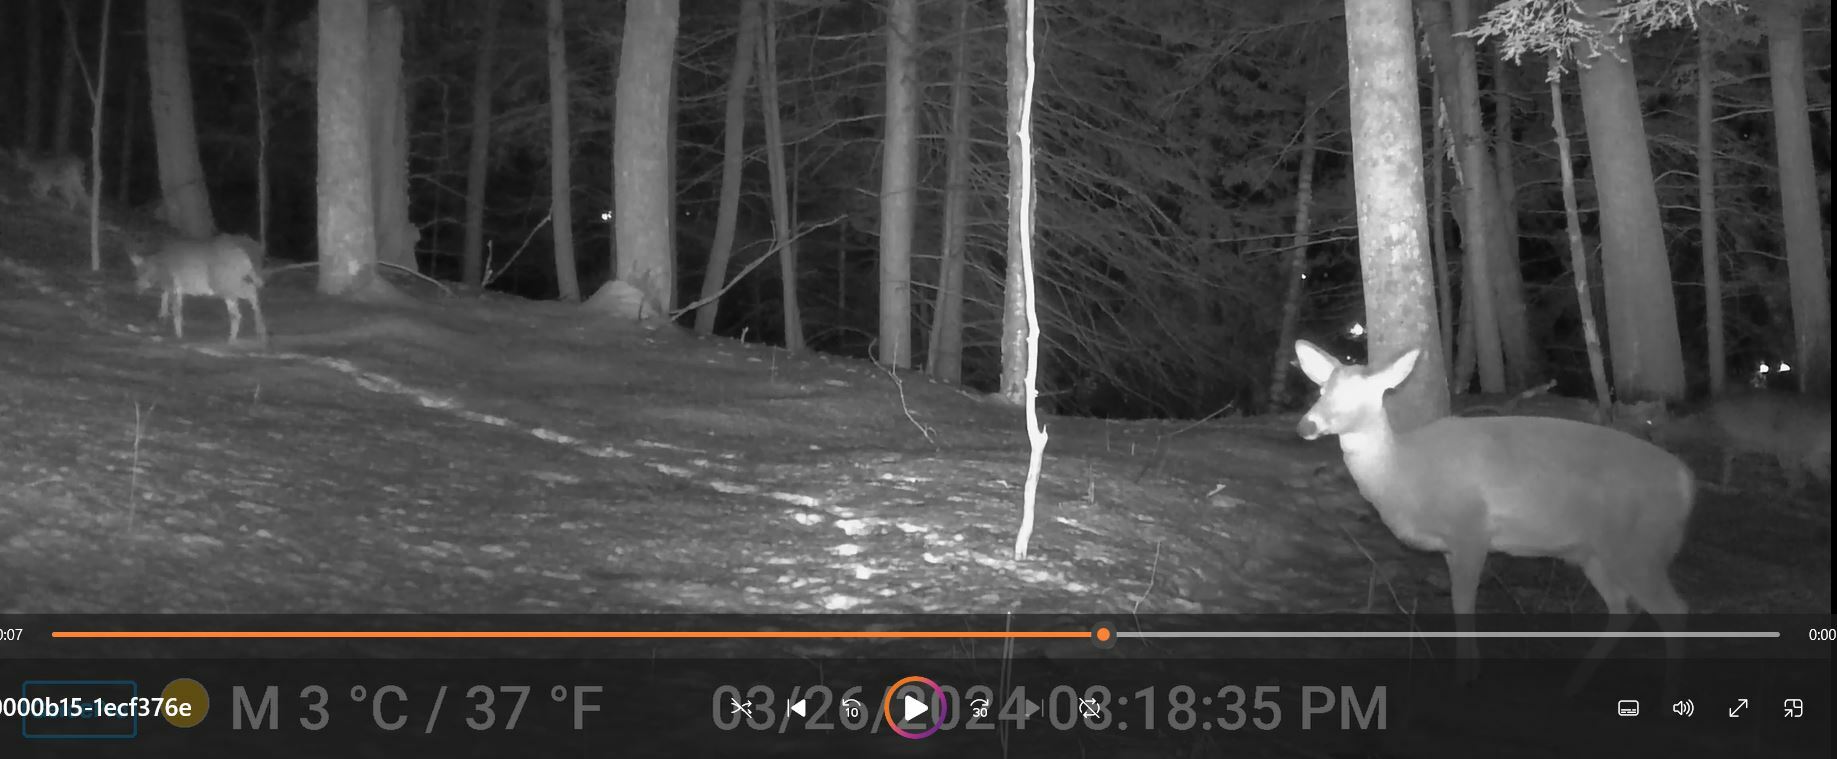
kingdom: Animalia
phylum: Chordata
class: Mammalia
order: Artiodactyla
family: Cervidae
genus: Odocoileus
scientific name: Odocoileus virginianus
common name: White-tailed deer
